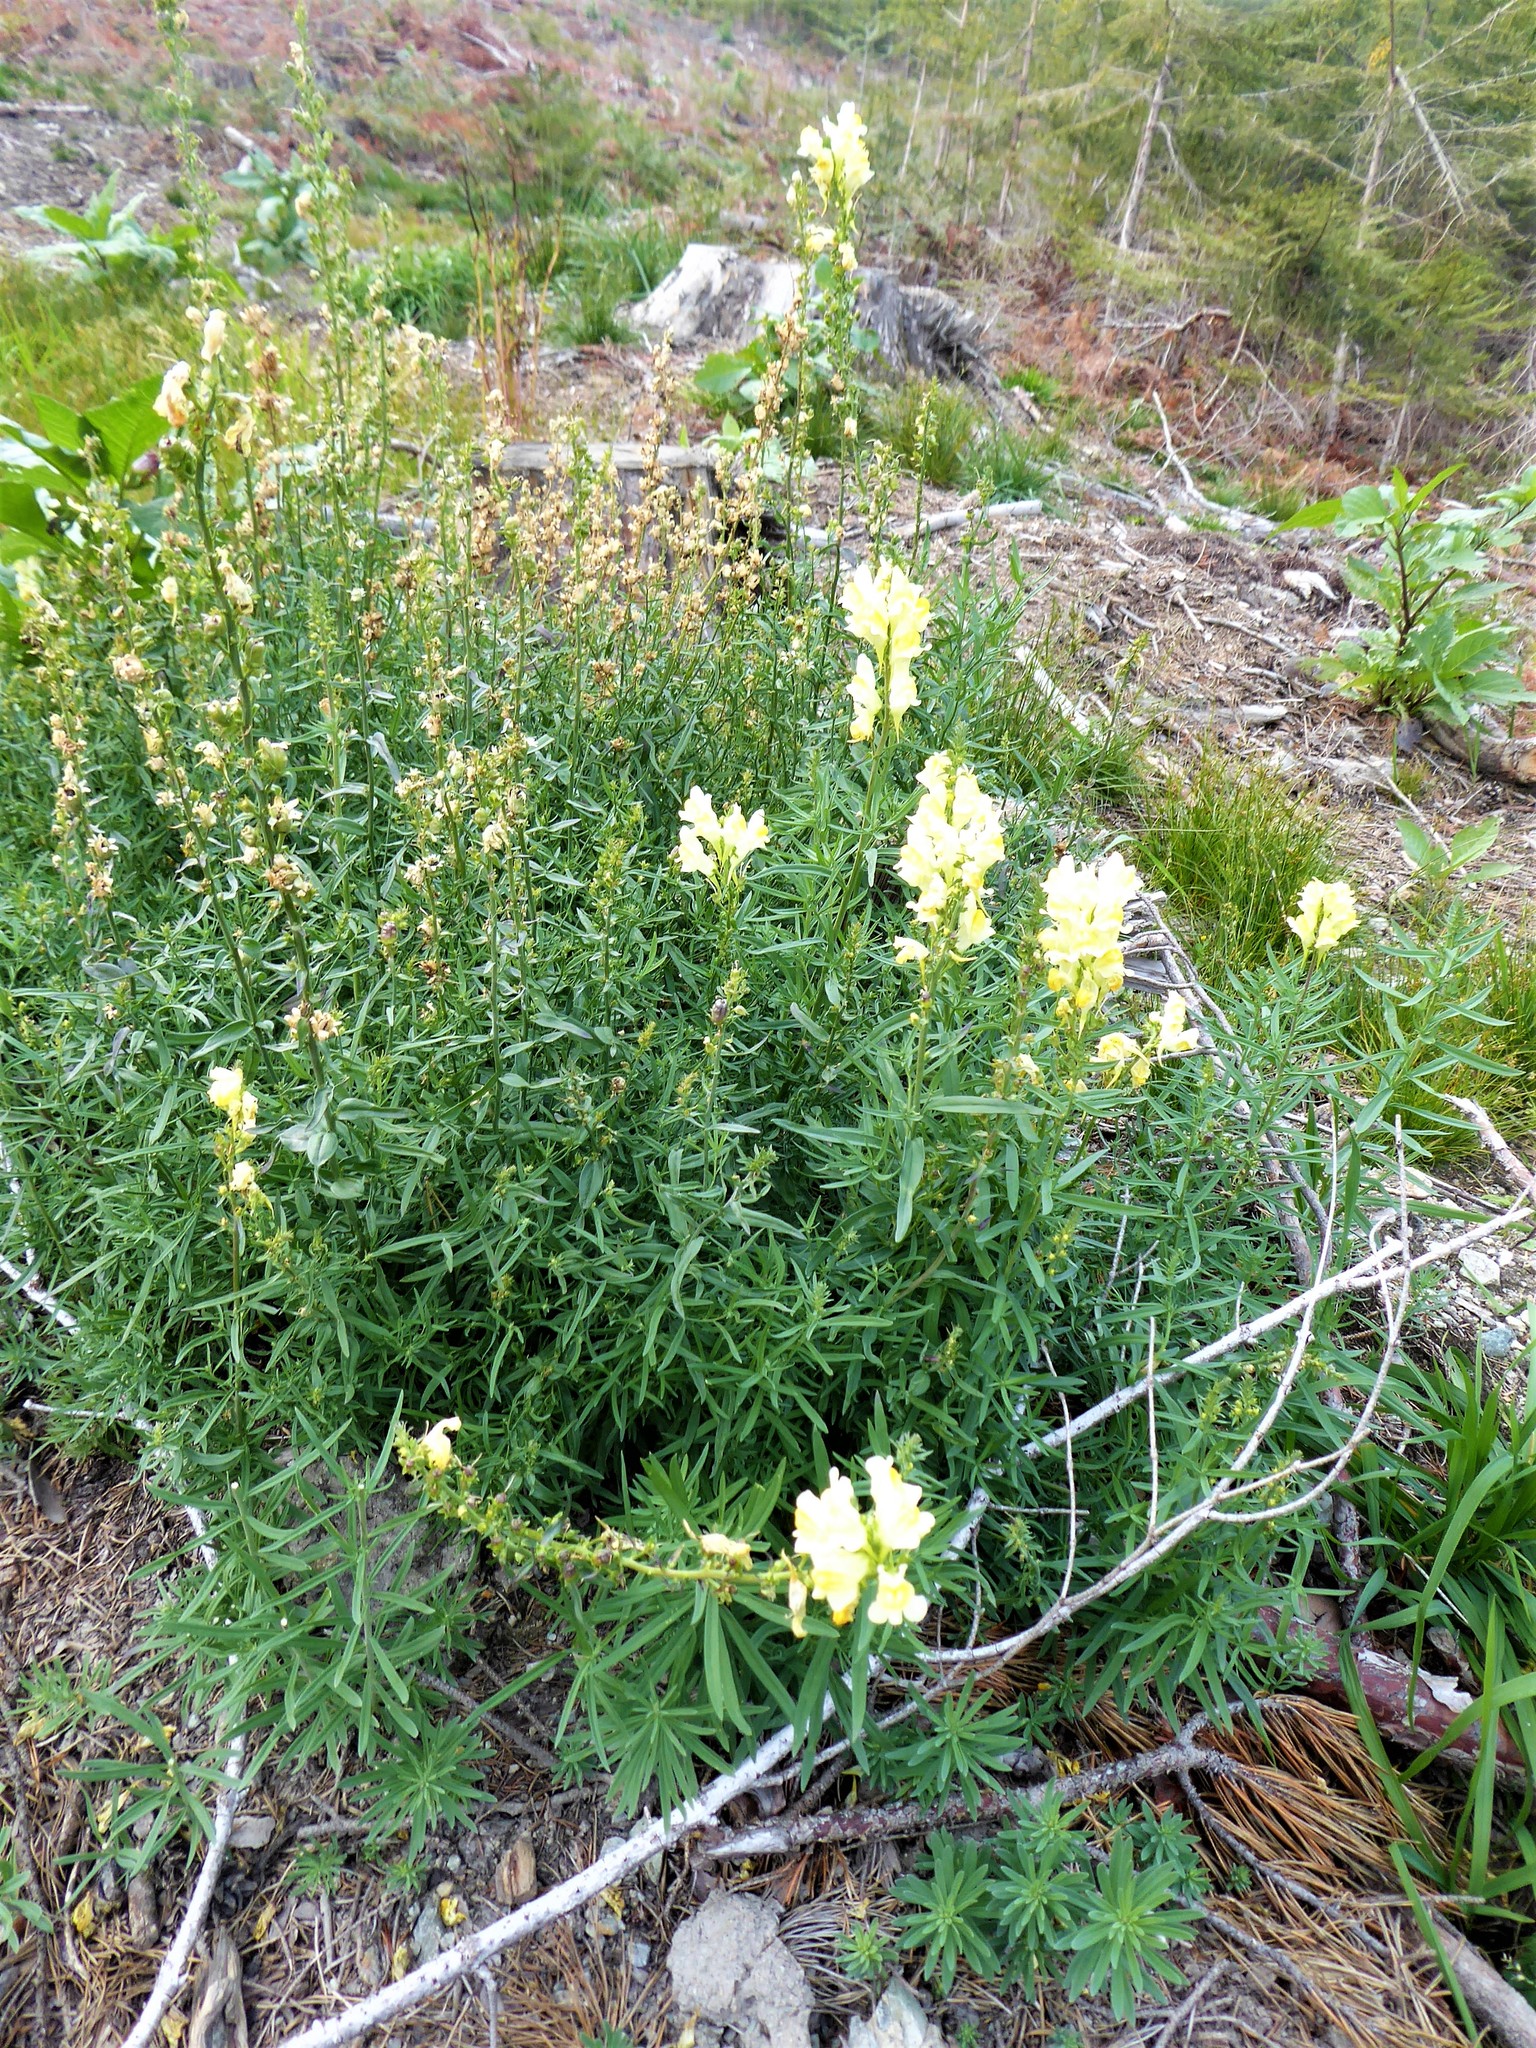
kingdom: Plantae
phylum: Tracheophyta
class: Magnoliopsida
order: Lamiales
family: Plantaginaceae
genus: Linaria
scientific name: Linaria vulgaris
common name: Butter and eggs
